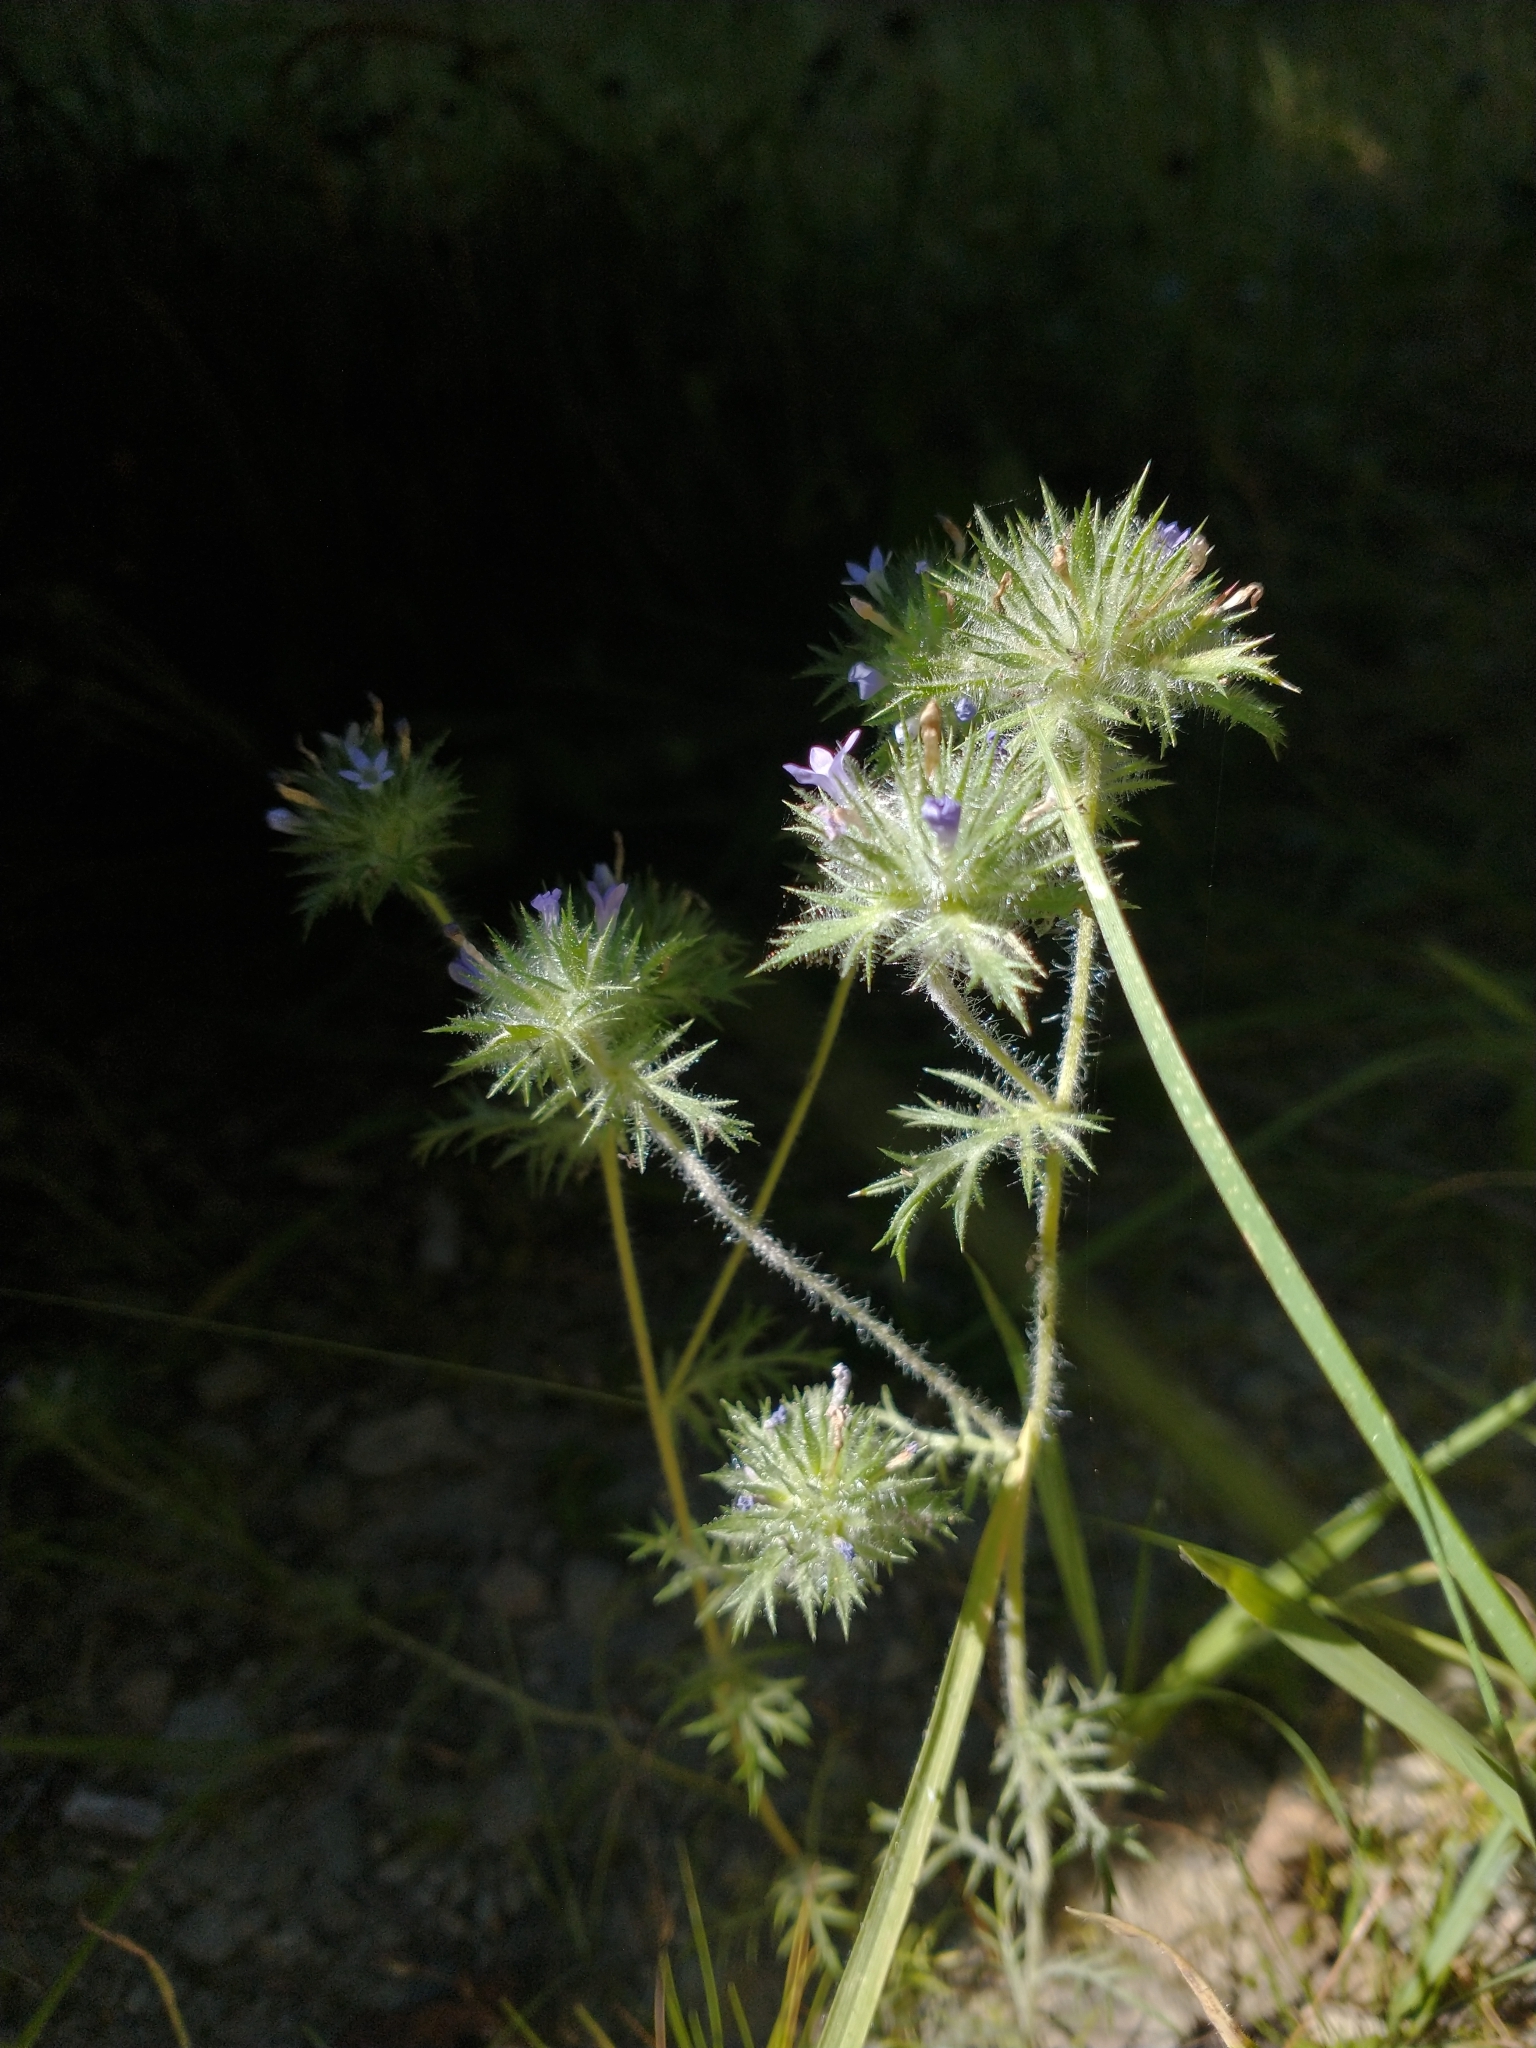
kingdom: Plantae
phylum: Tracheophyta
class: Magnoliopsida
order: Ericales
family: Polemoniaceae
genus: Navarretia
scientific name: Navarretia squarrosa
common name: Skunkweed
